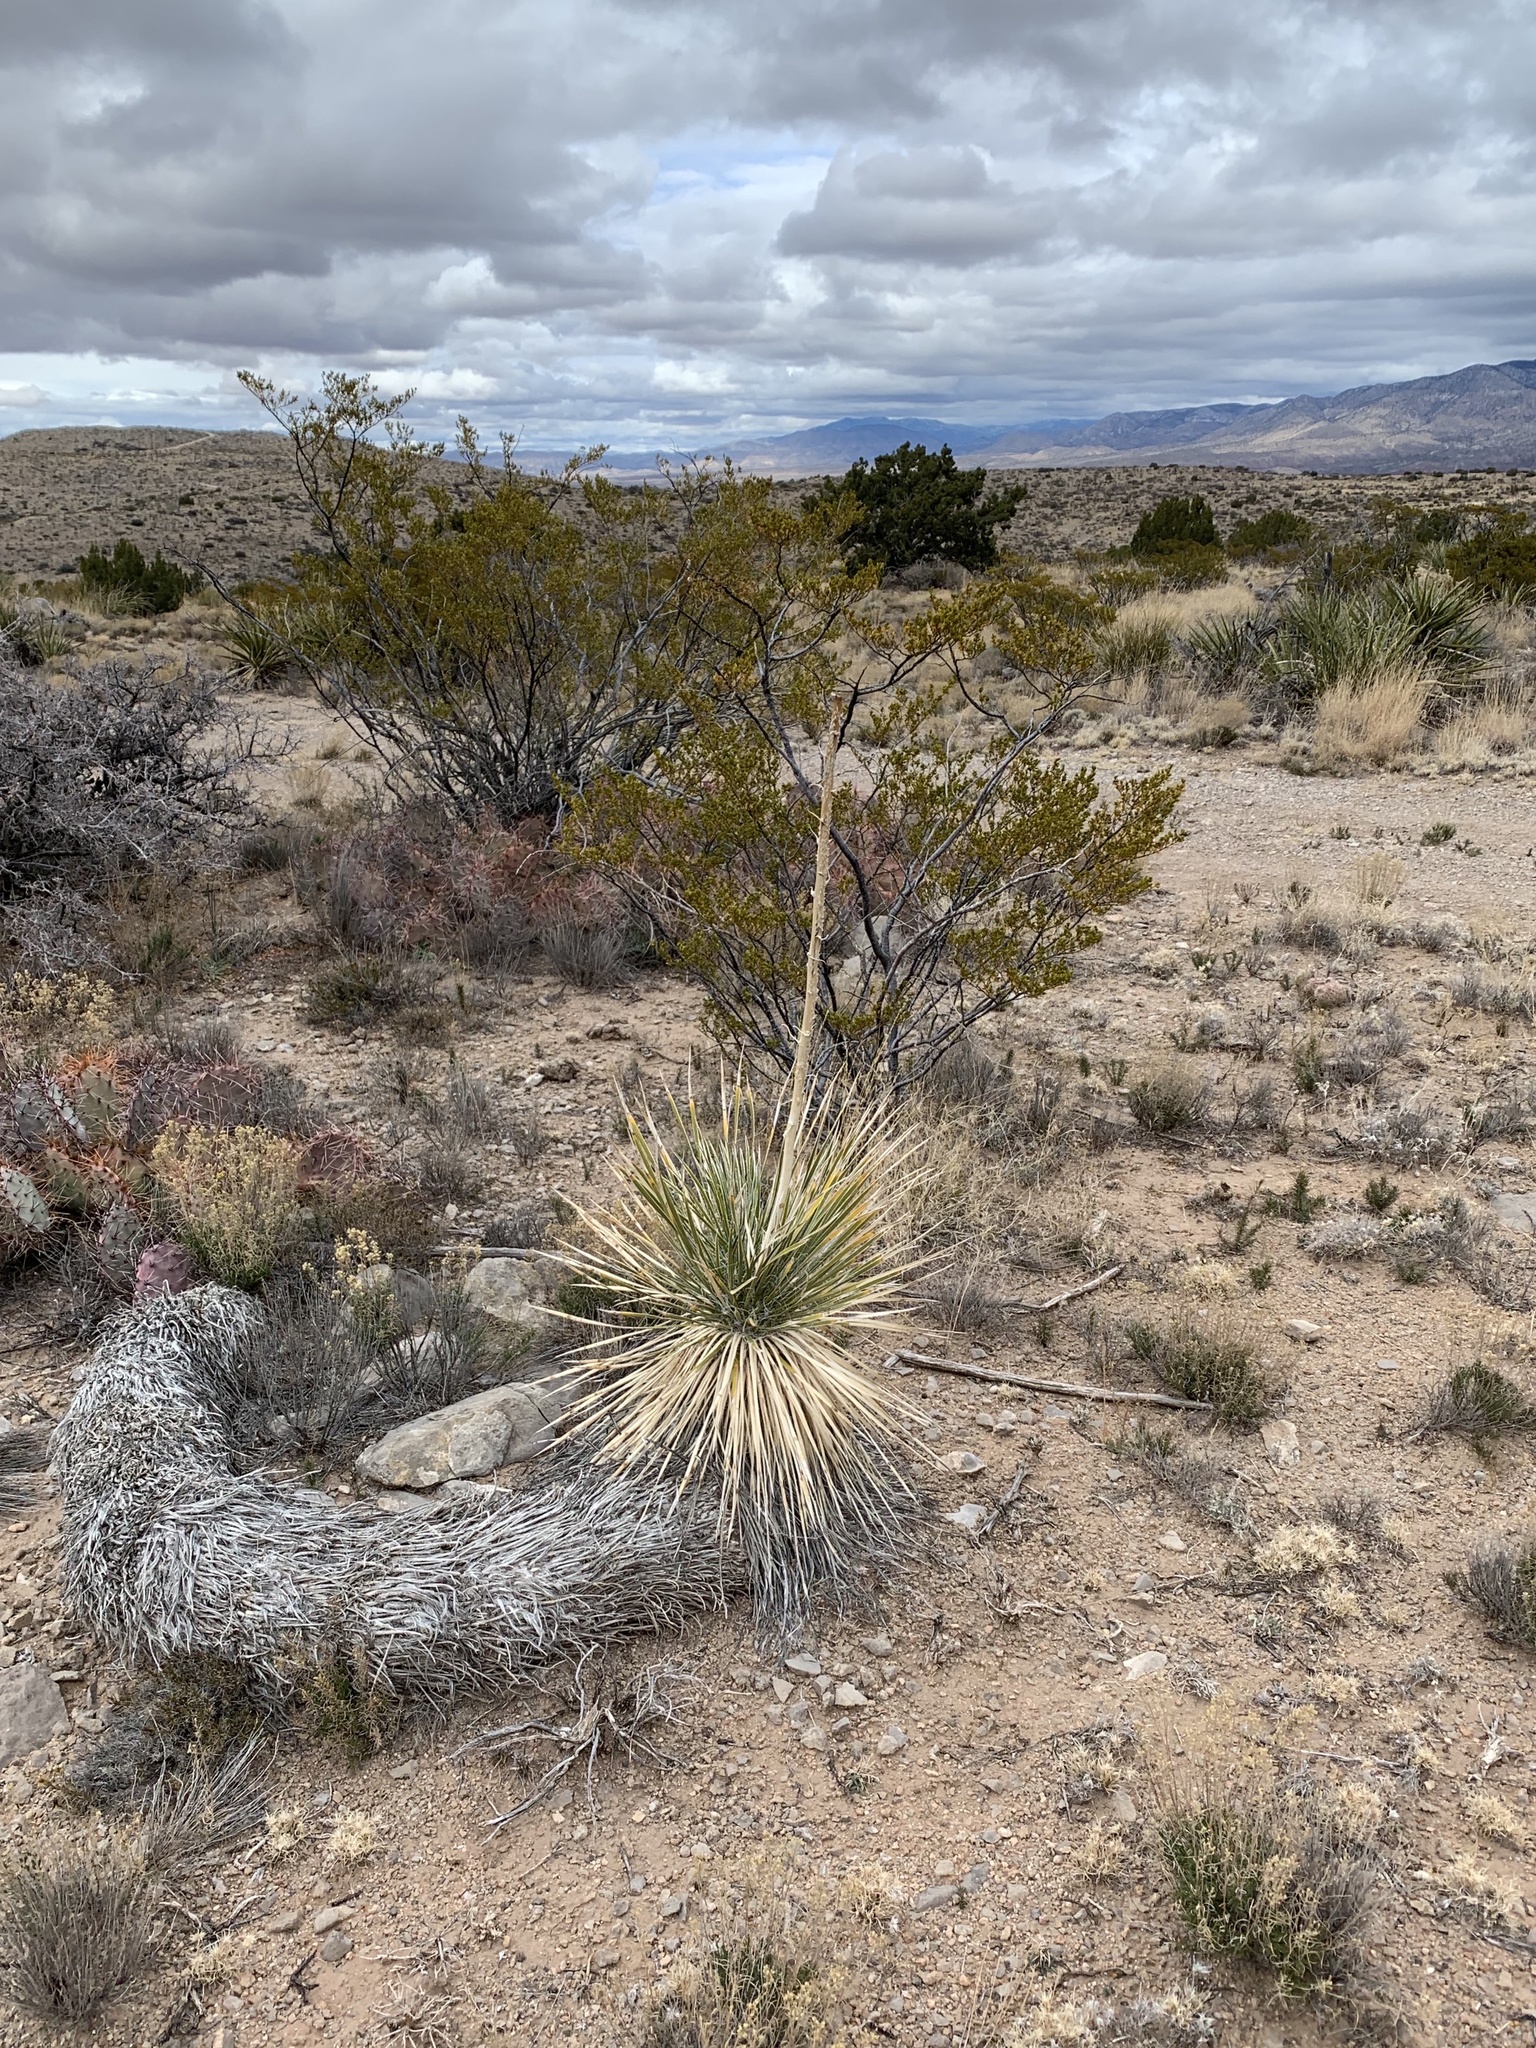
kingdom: Plantae
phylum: Tracheophyta
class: Liliopsida
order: Asparagales
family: Asparagaceae
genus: Yucca
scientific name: Yucca elata
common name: Palmella
